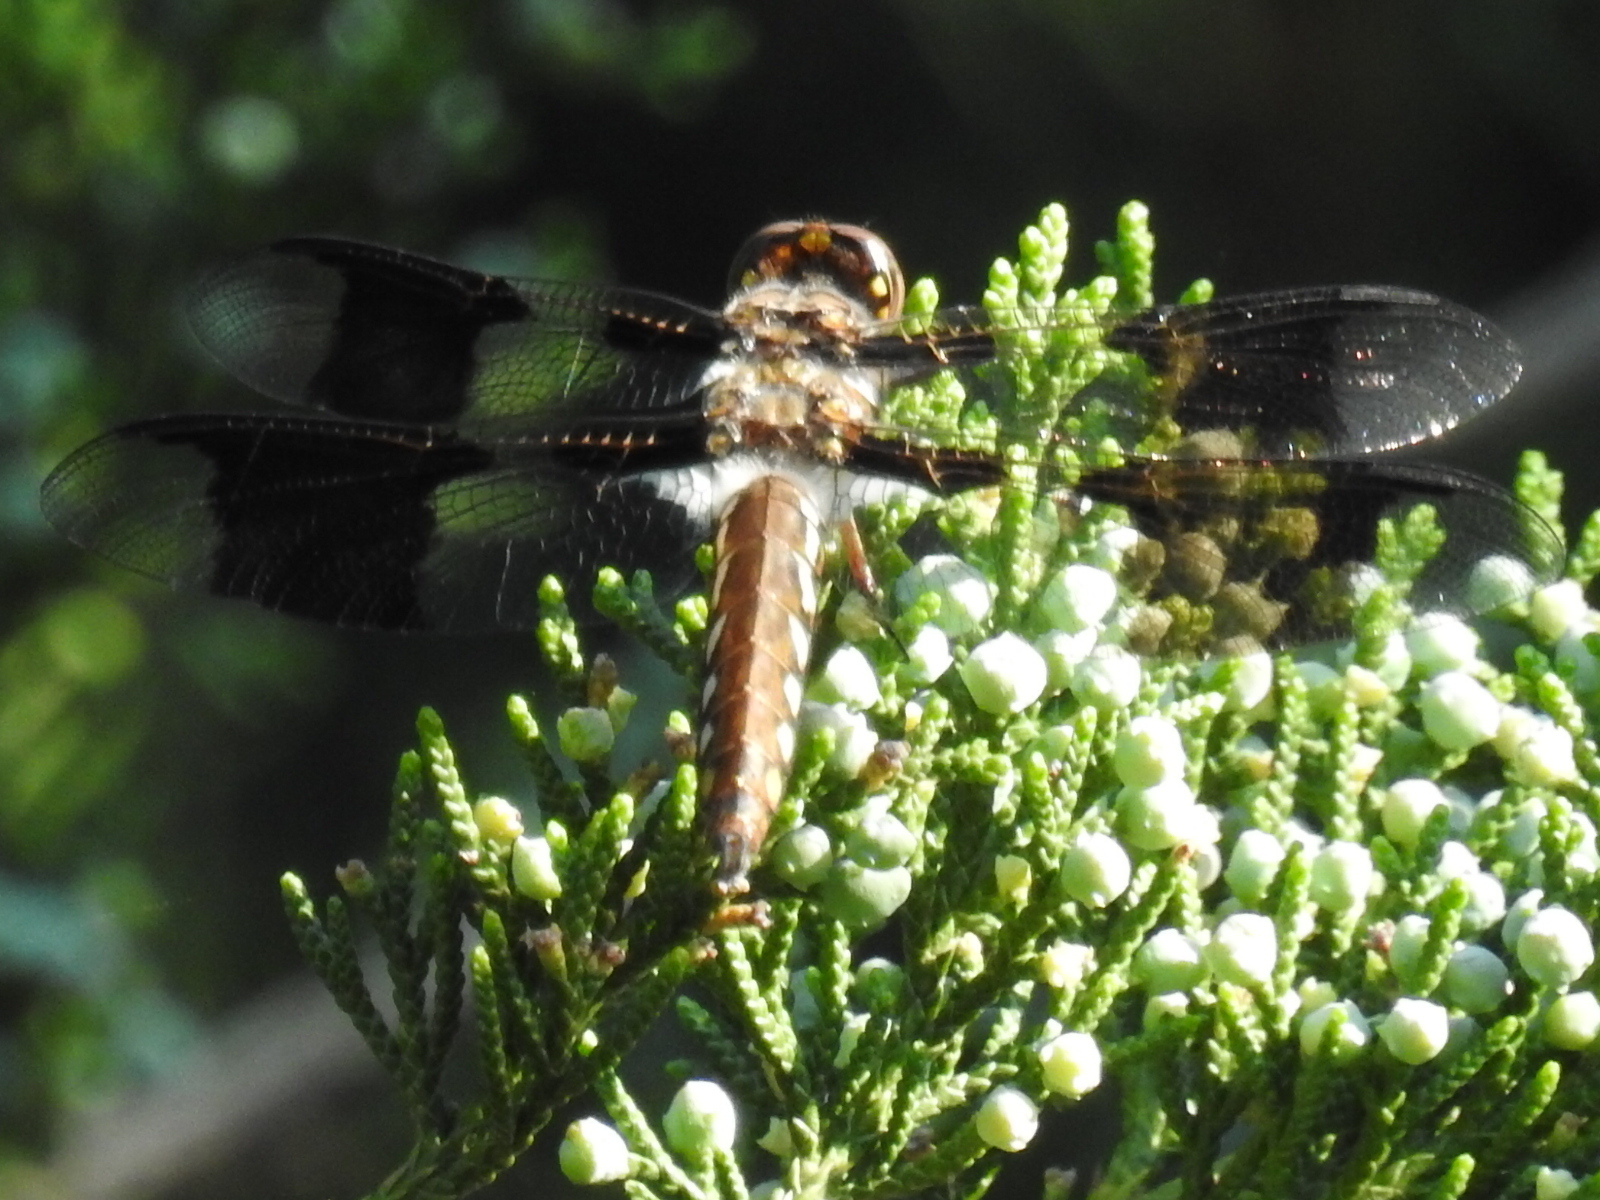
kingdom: Animalia
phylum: Arthropoda
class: Insecta
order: Odonata
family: Libellulidae
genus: Plathemis
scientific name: Plathemis lydia
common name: Common whitetail
